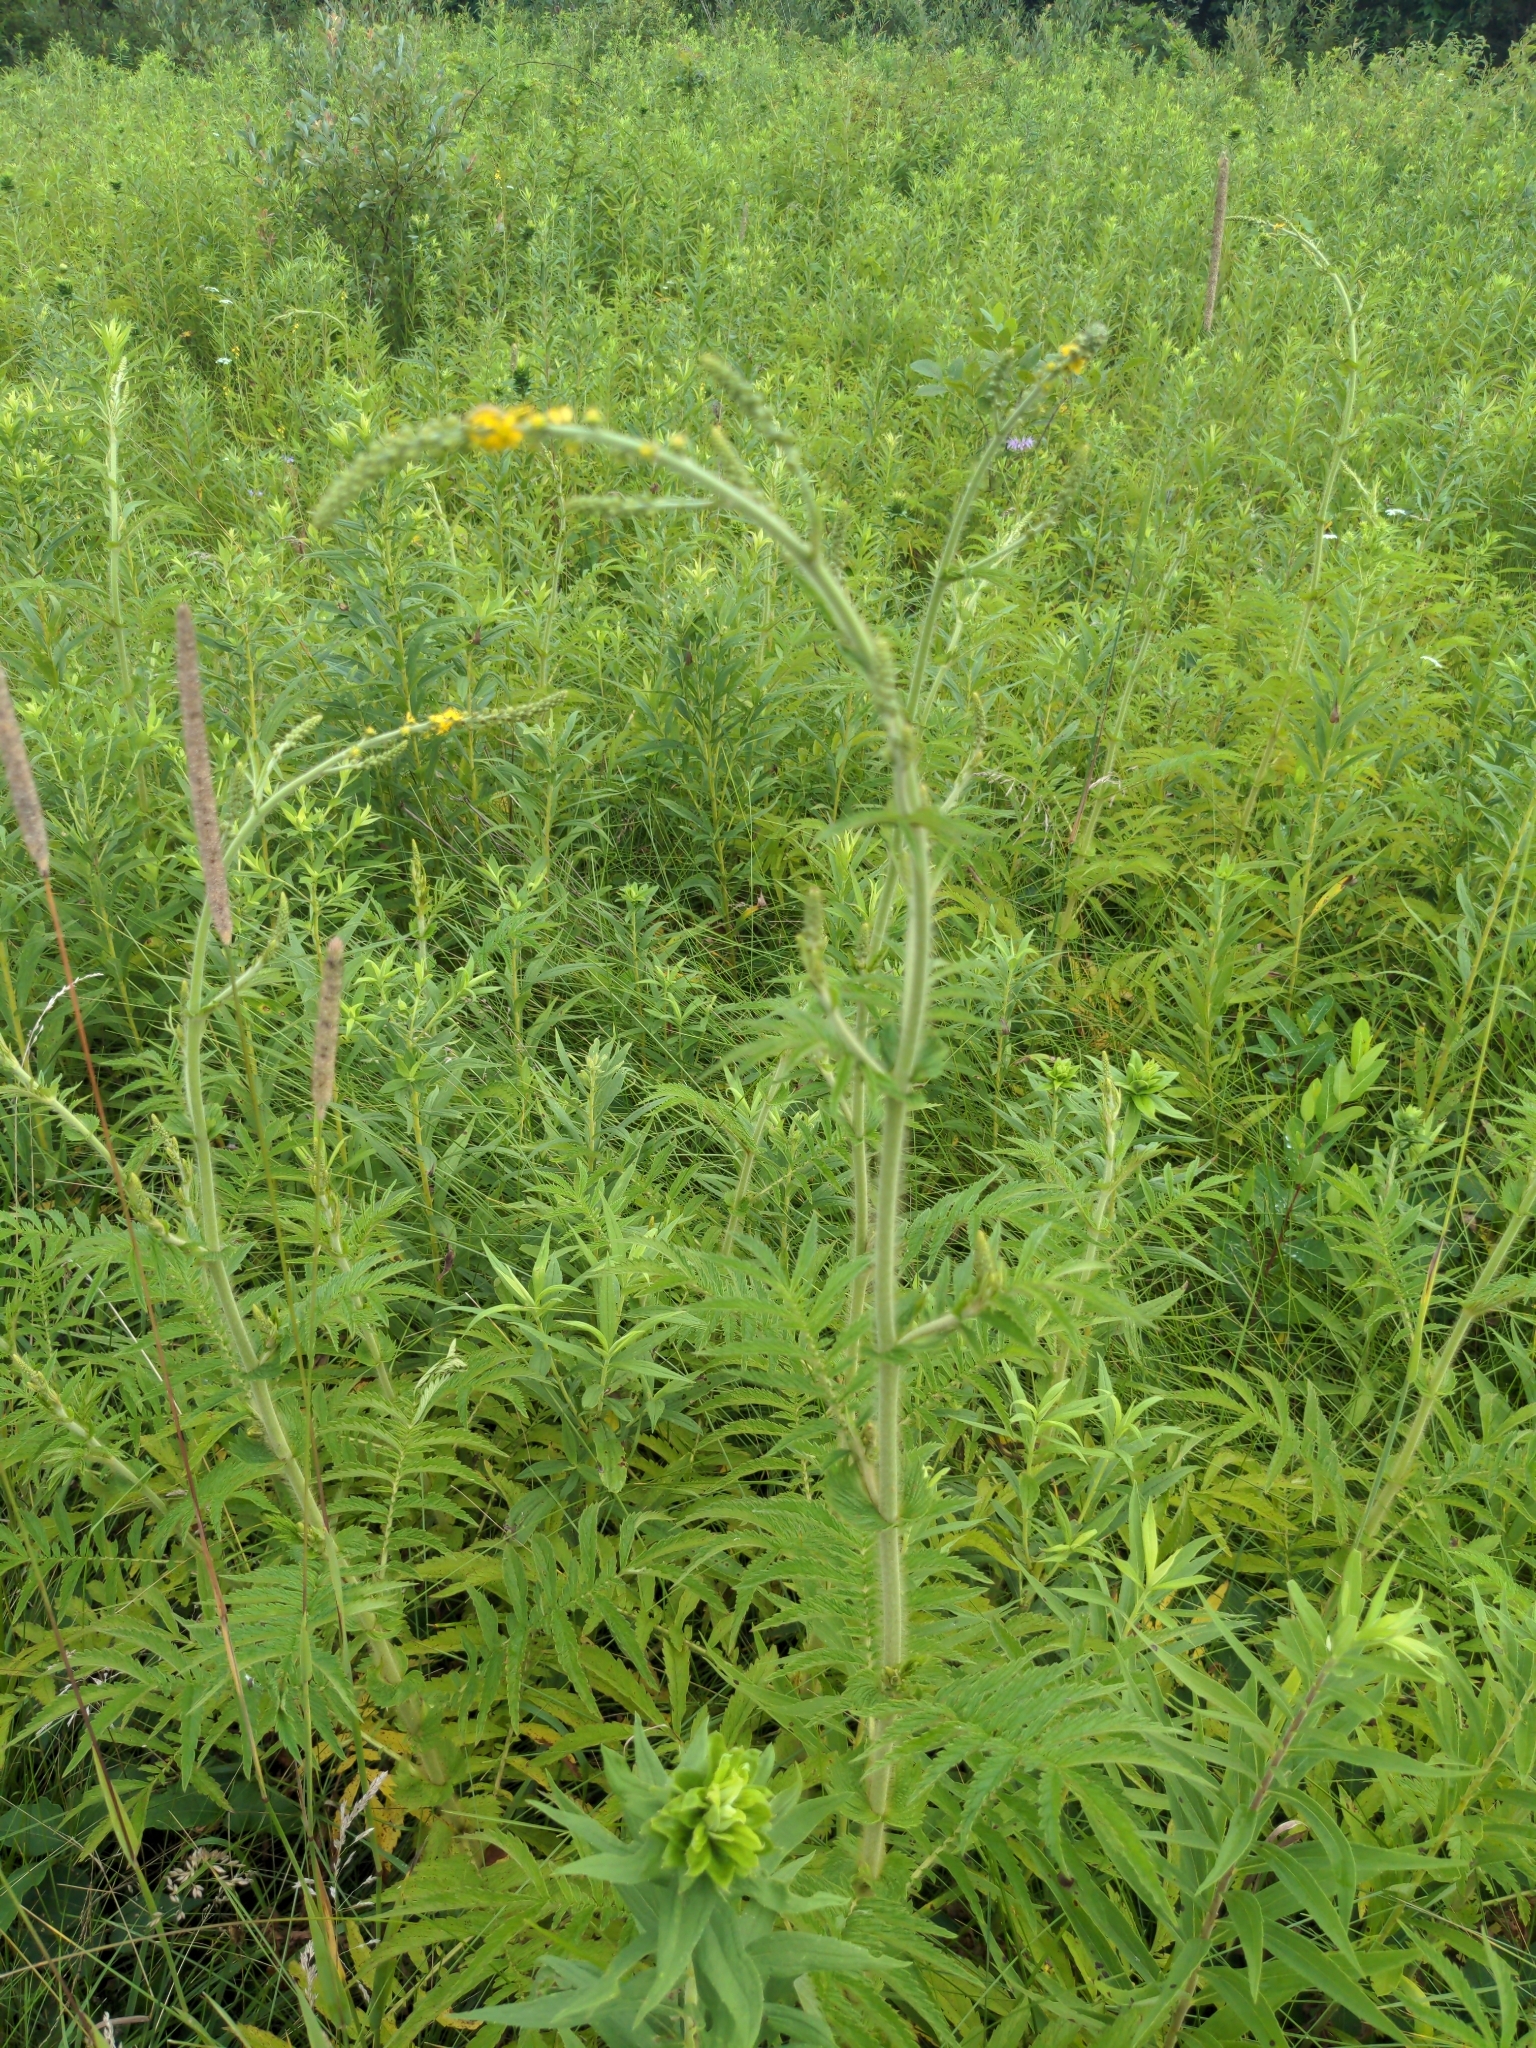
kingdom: Plantae
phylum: Tracheophyta
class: Magnoliopsida
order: Rosales
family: Rosaceae
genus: Agrimonia
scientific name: Agrimonia parviflora
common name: Harvest-lice
